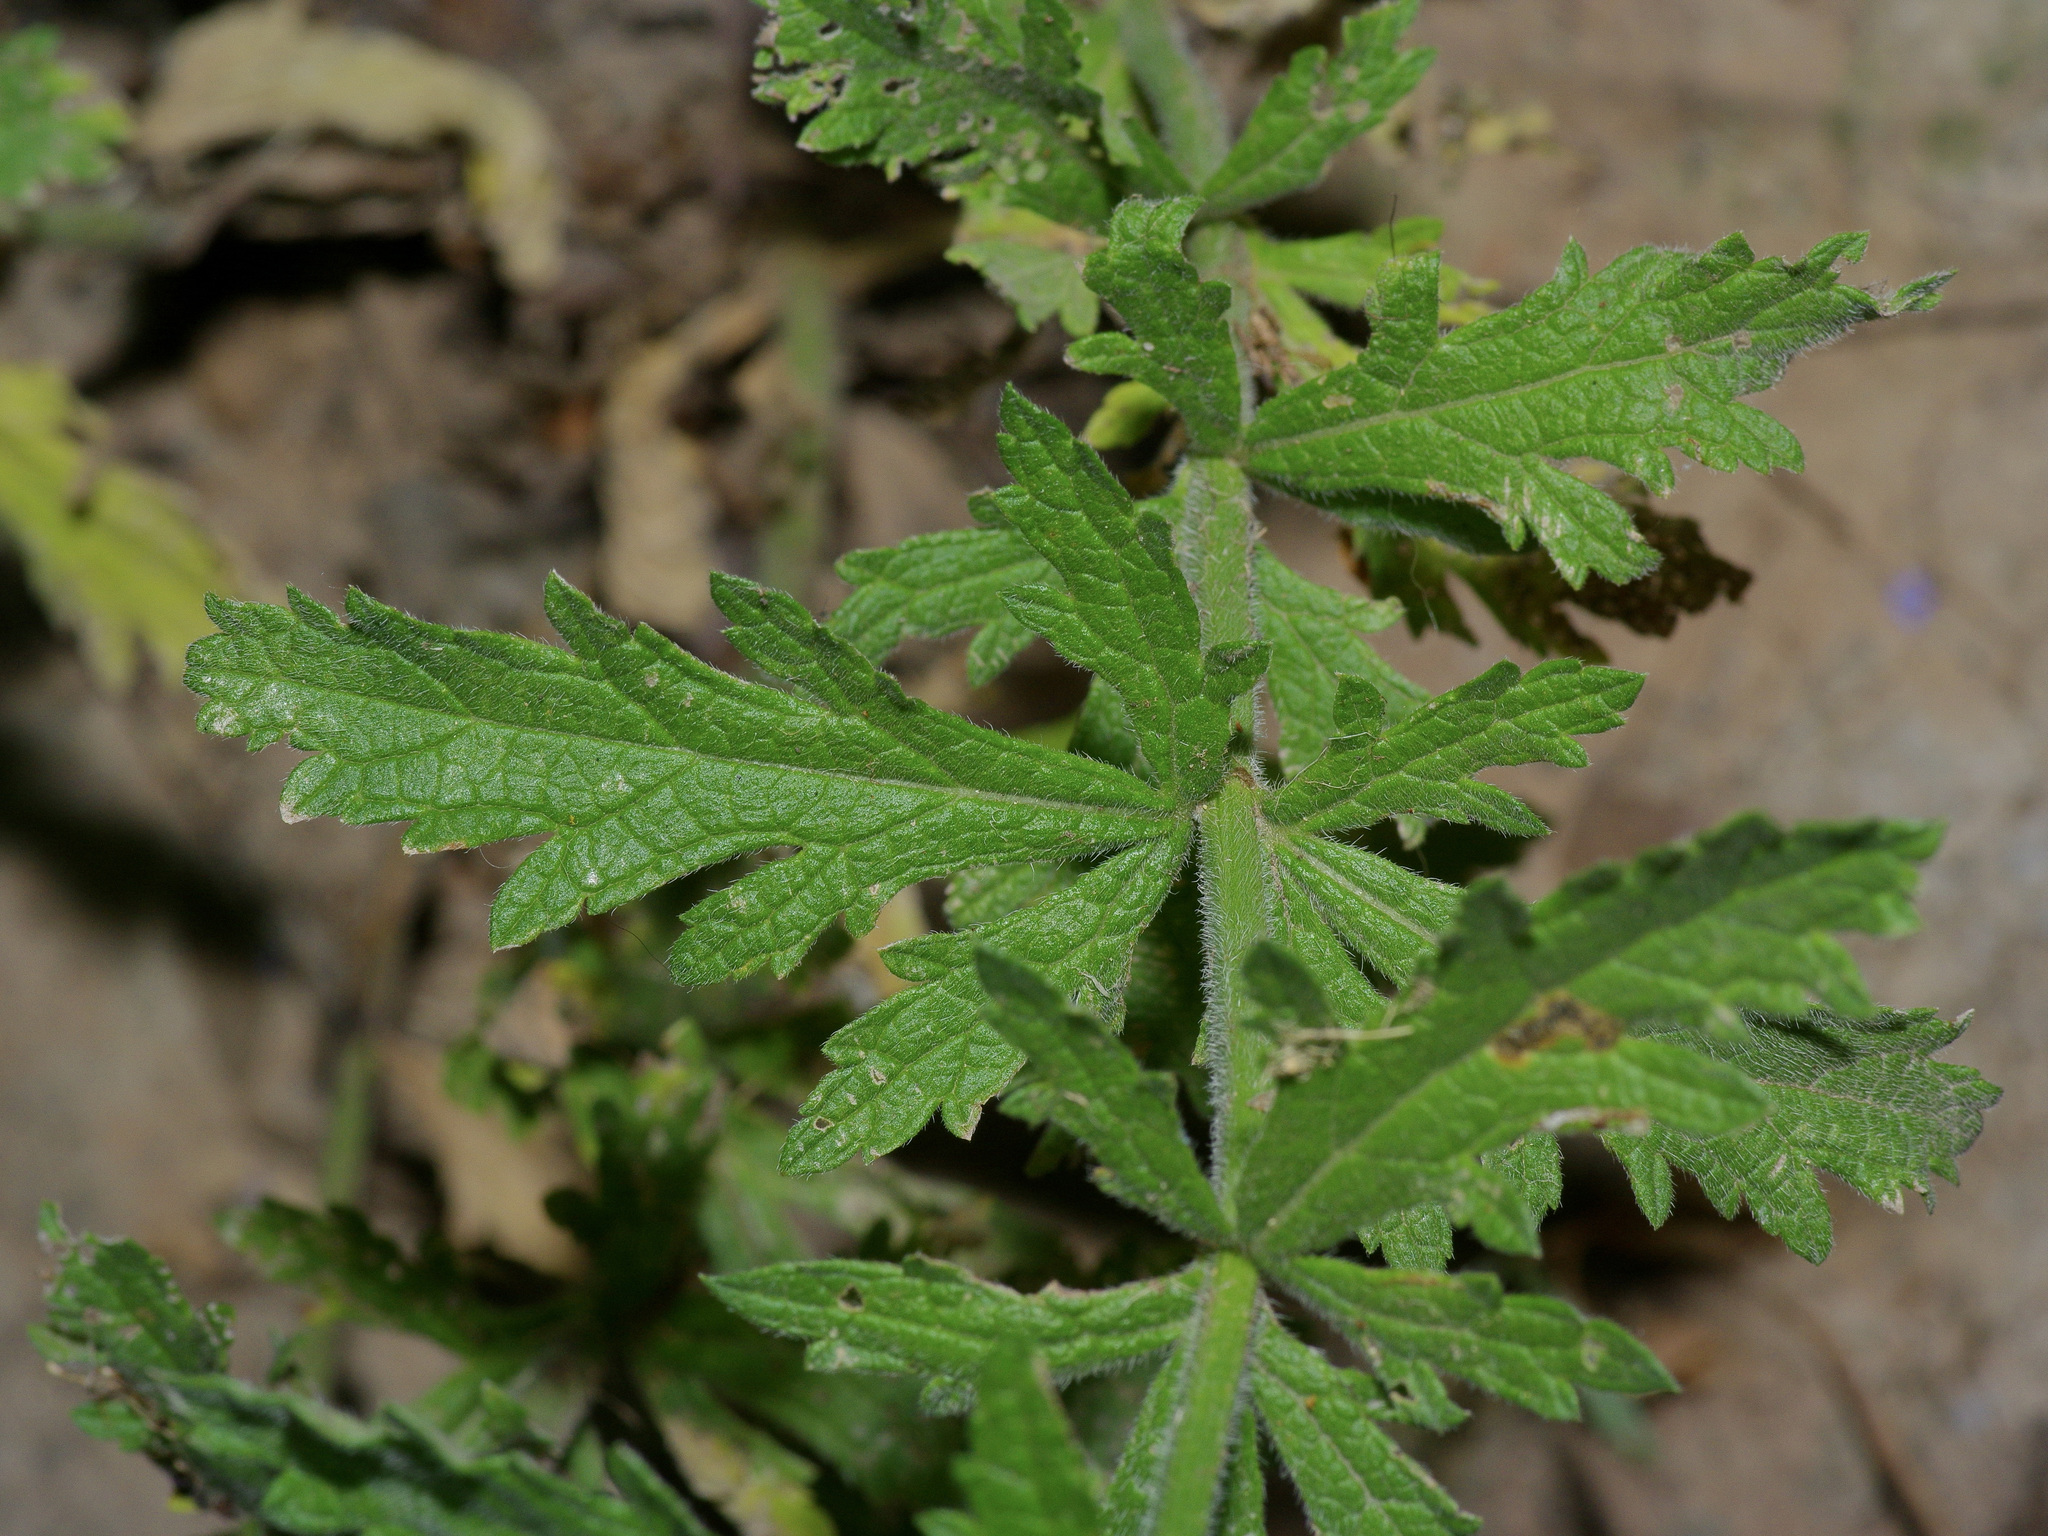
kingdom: Plantae
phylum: Tracheophyta
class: Magnoliopsida
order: Lamiales
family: Verbenaceae
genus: Verbena
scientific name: Verbena xutha
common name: Gulf vervain
